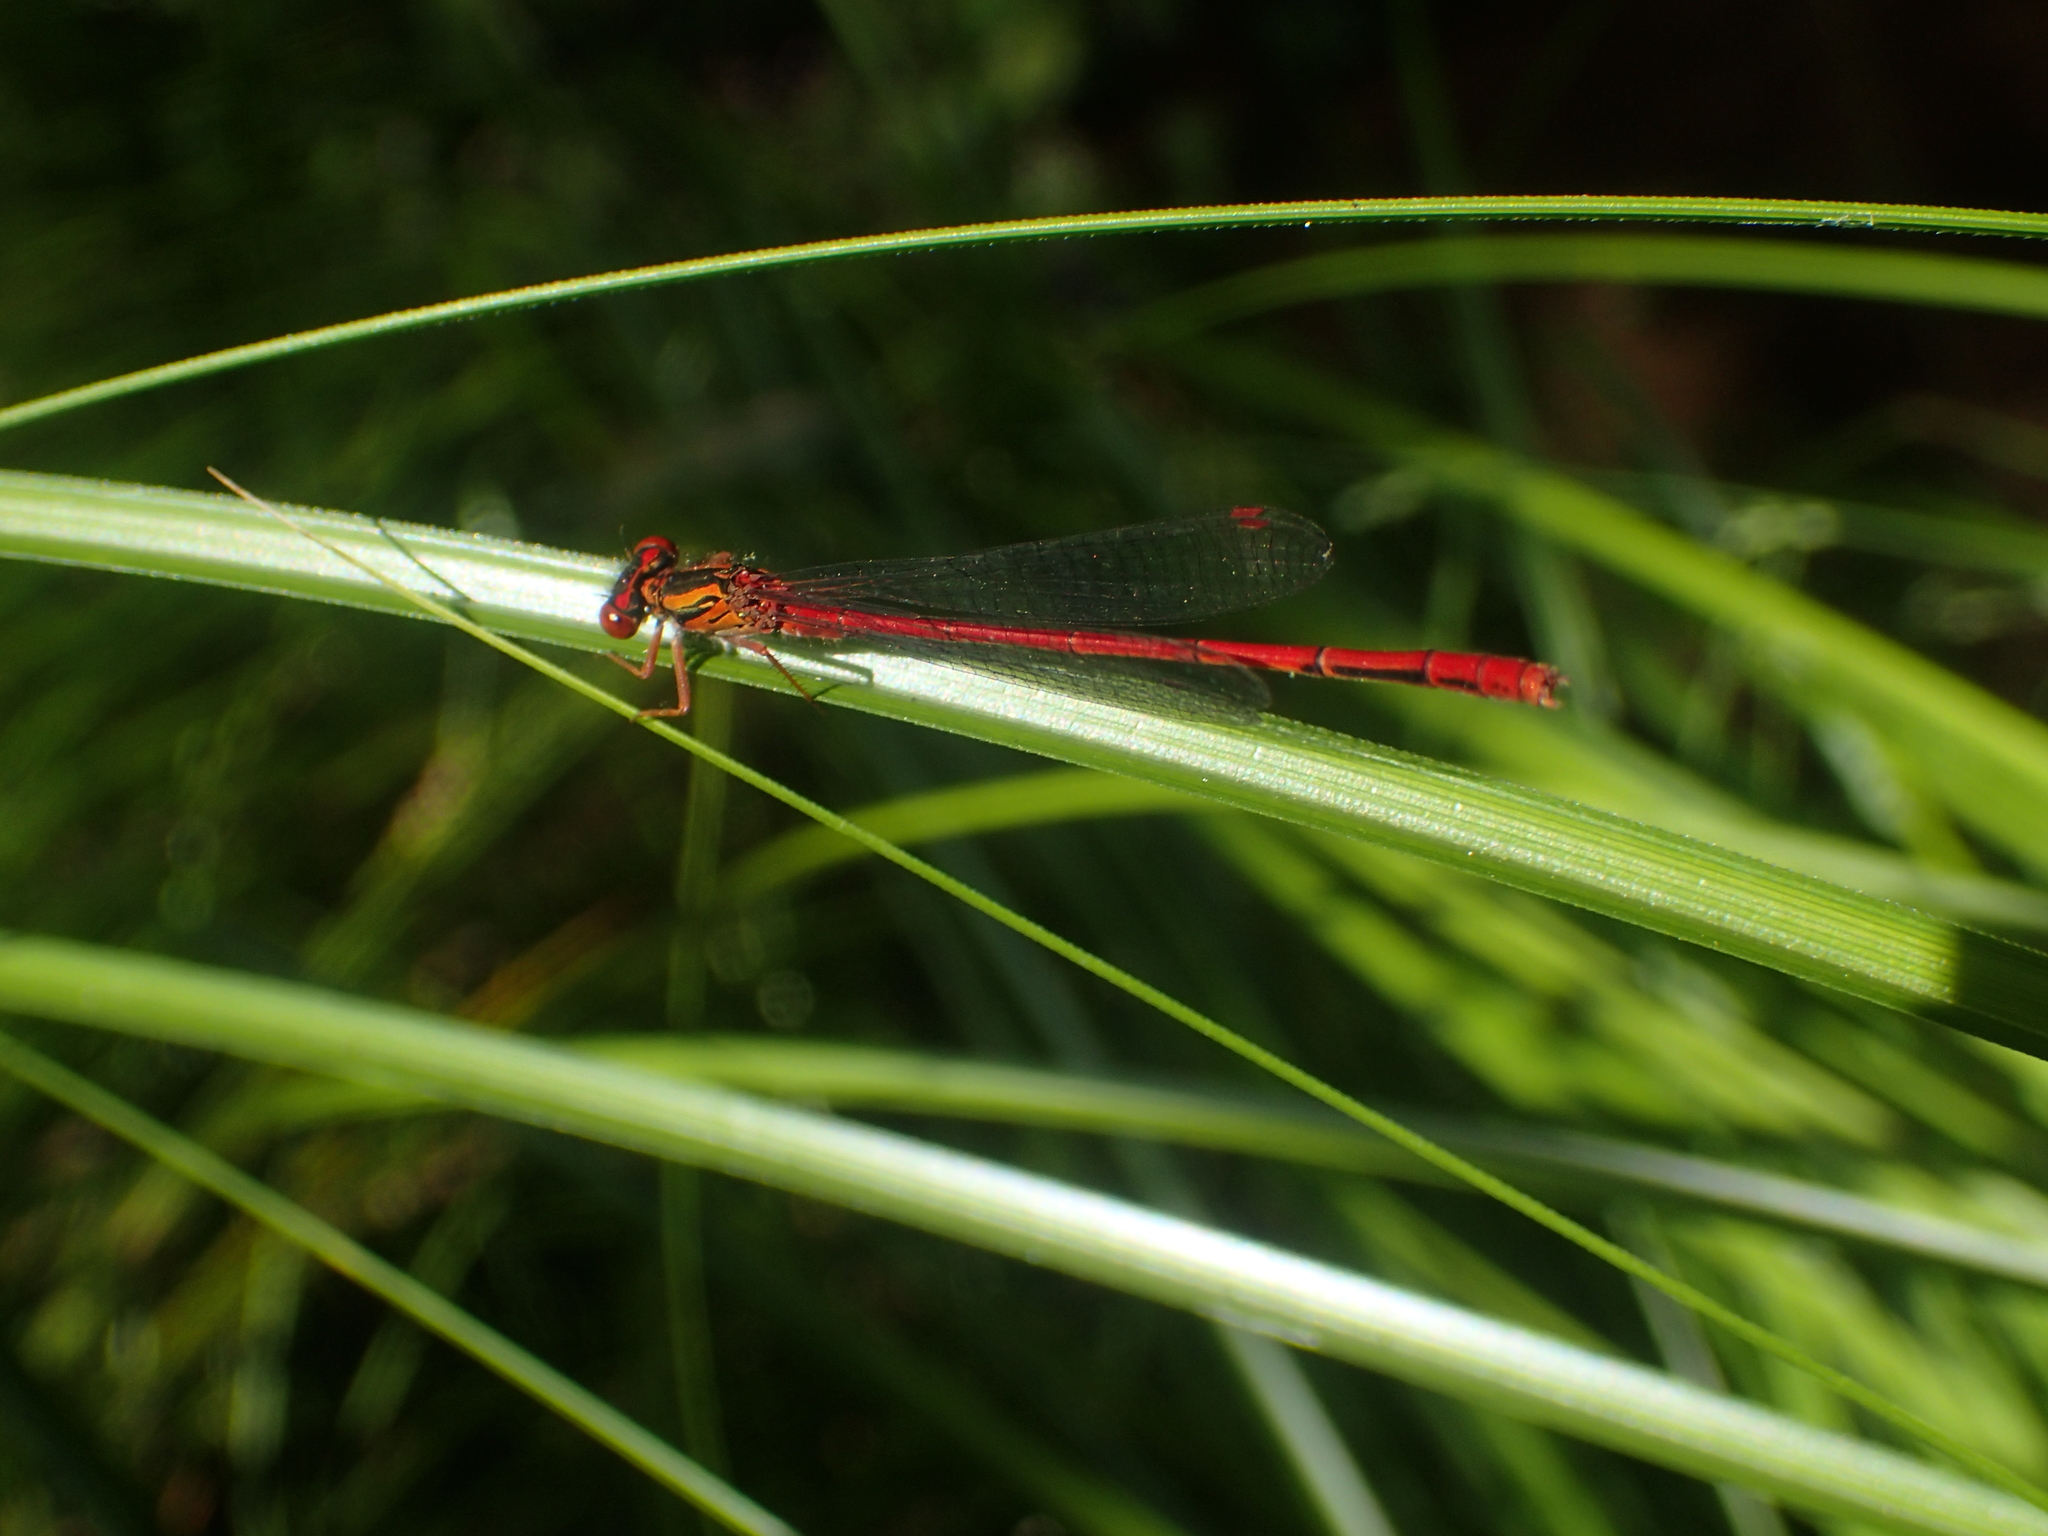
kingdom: Animalia
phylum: Arthropoda
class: Insecta
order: Odonata
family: Coenagrionidae
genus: Xanthocnemis
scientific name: Xanthocnemis zealandica
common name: Common redcoat damselfly
